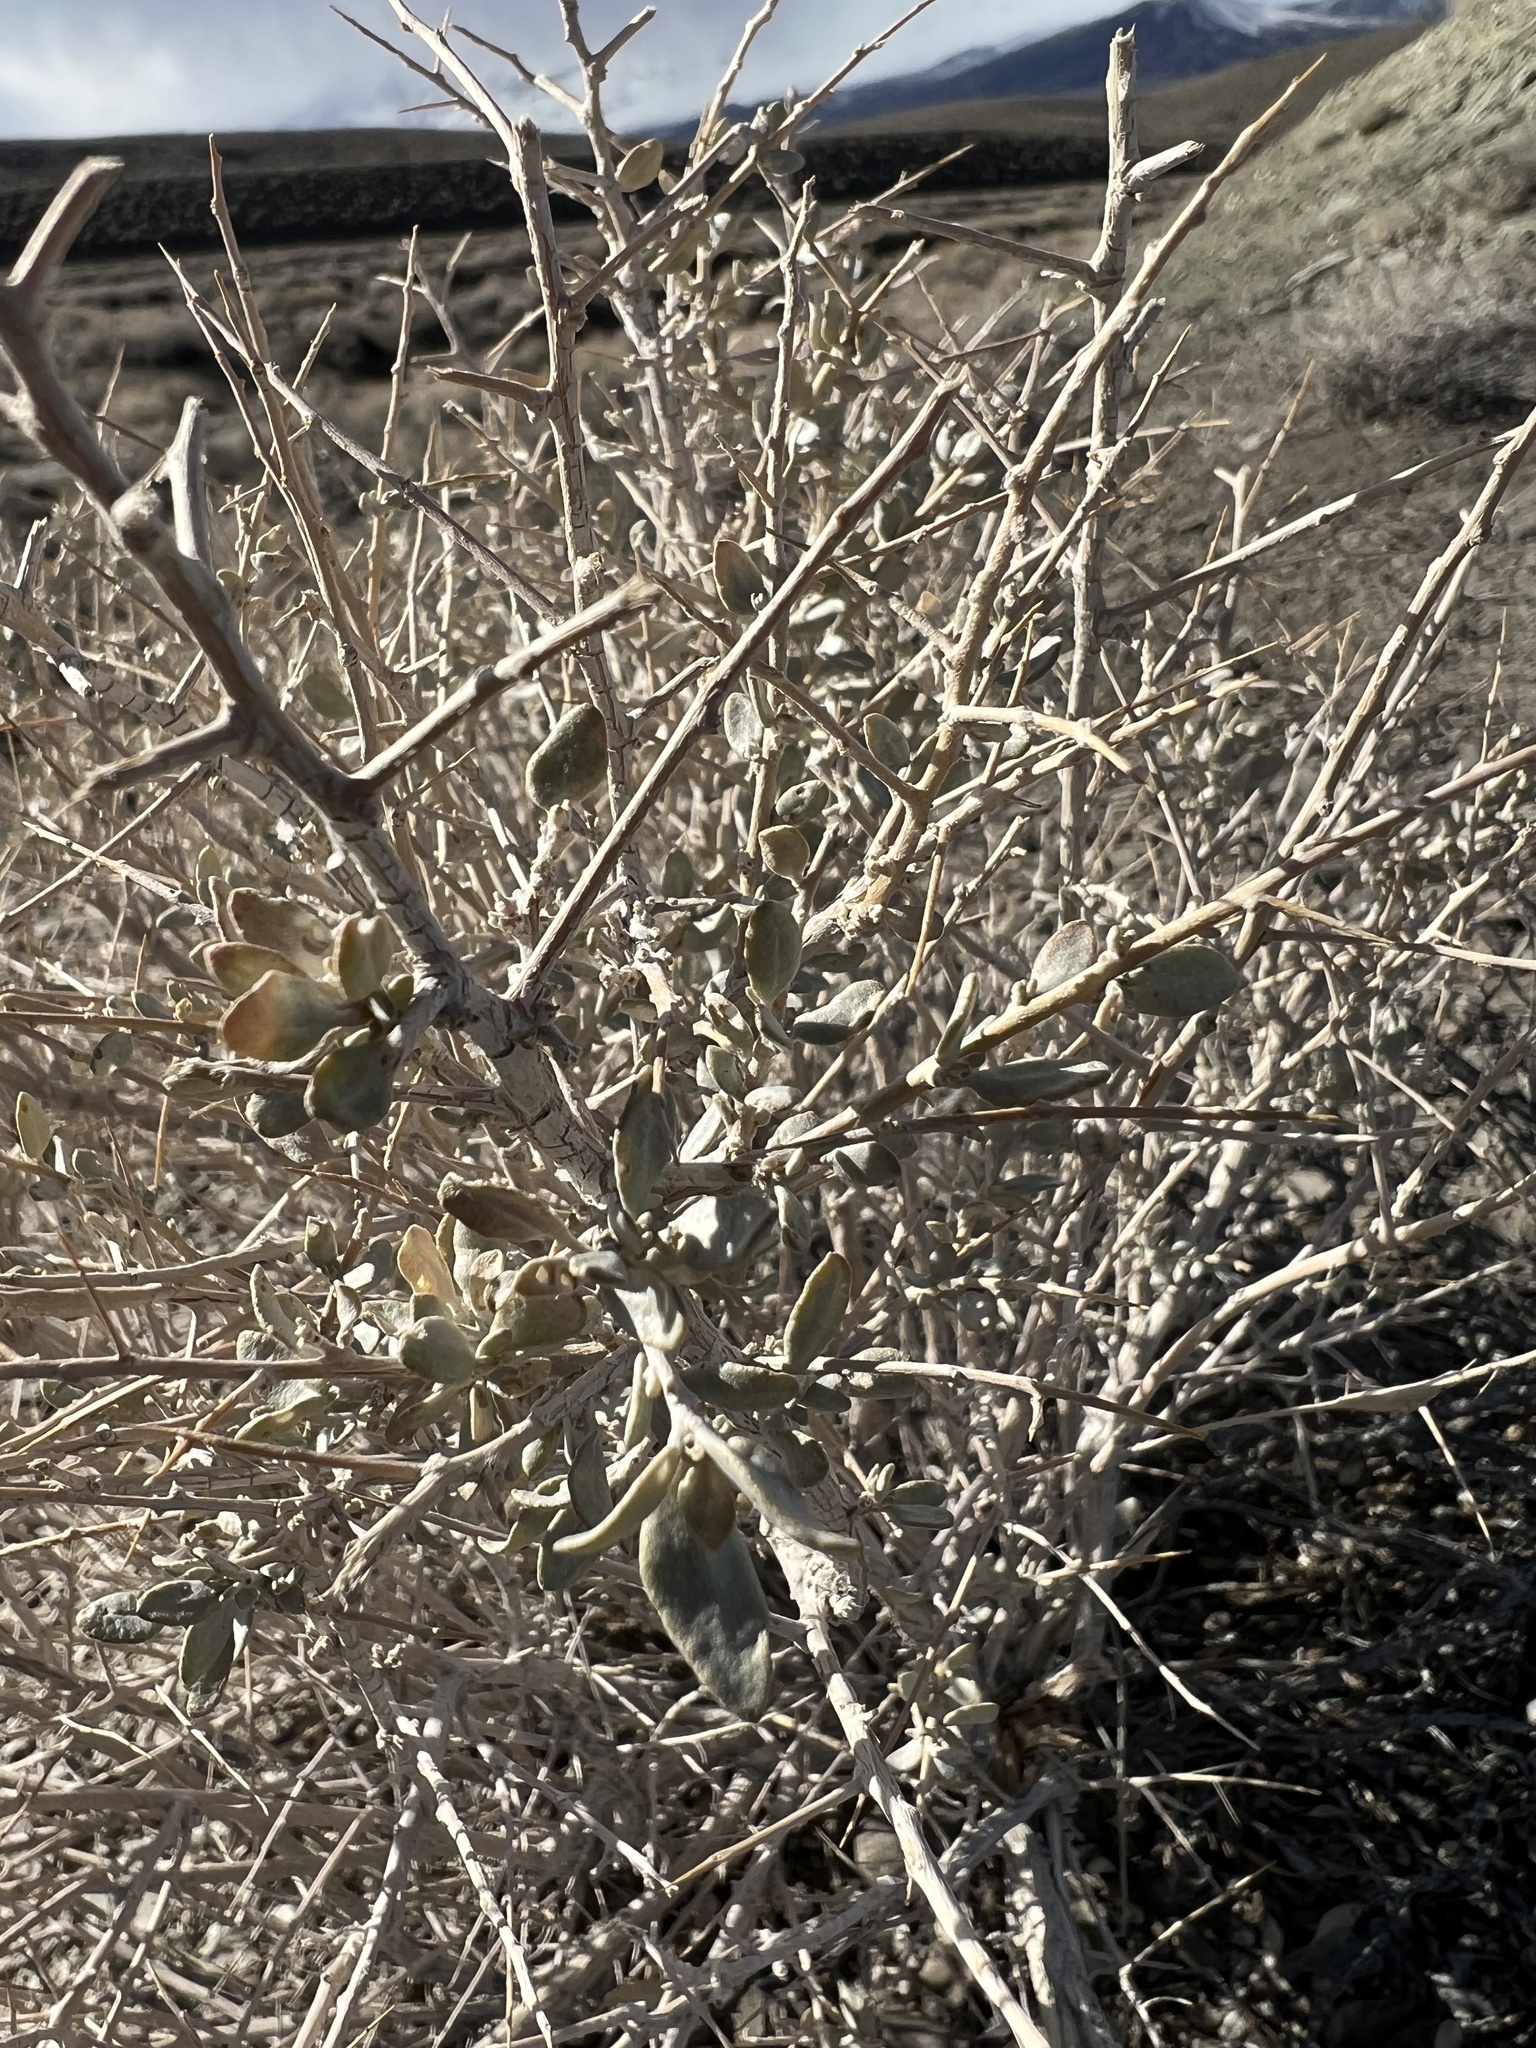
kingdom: Plantae
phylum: Tracheophyta
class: Magnoliopsida
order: Caryophyllales
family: Amaranthaceae
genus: Atriplex
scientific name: Atriplex confertifolia
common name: Shadscale
